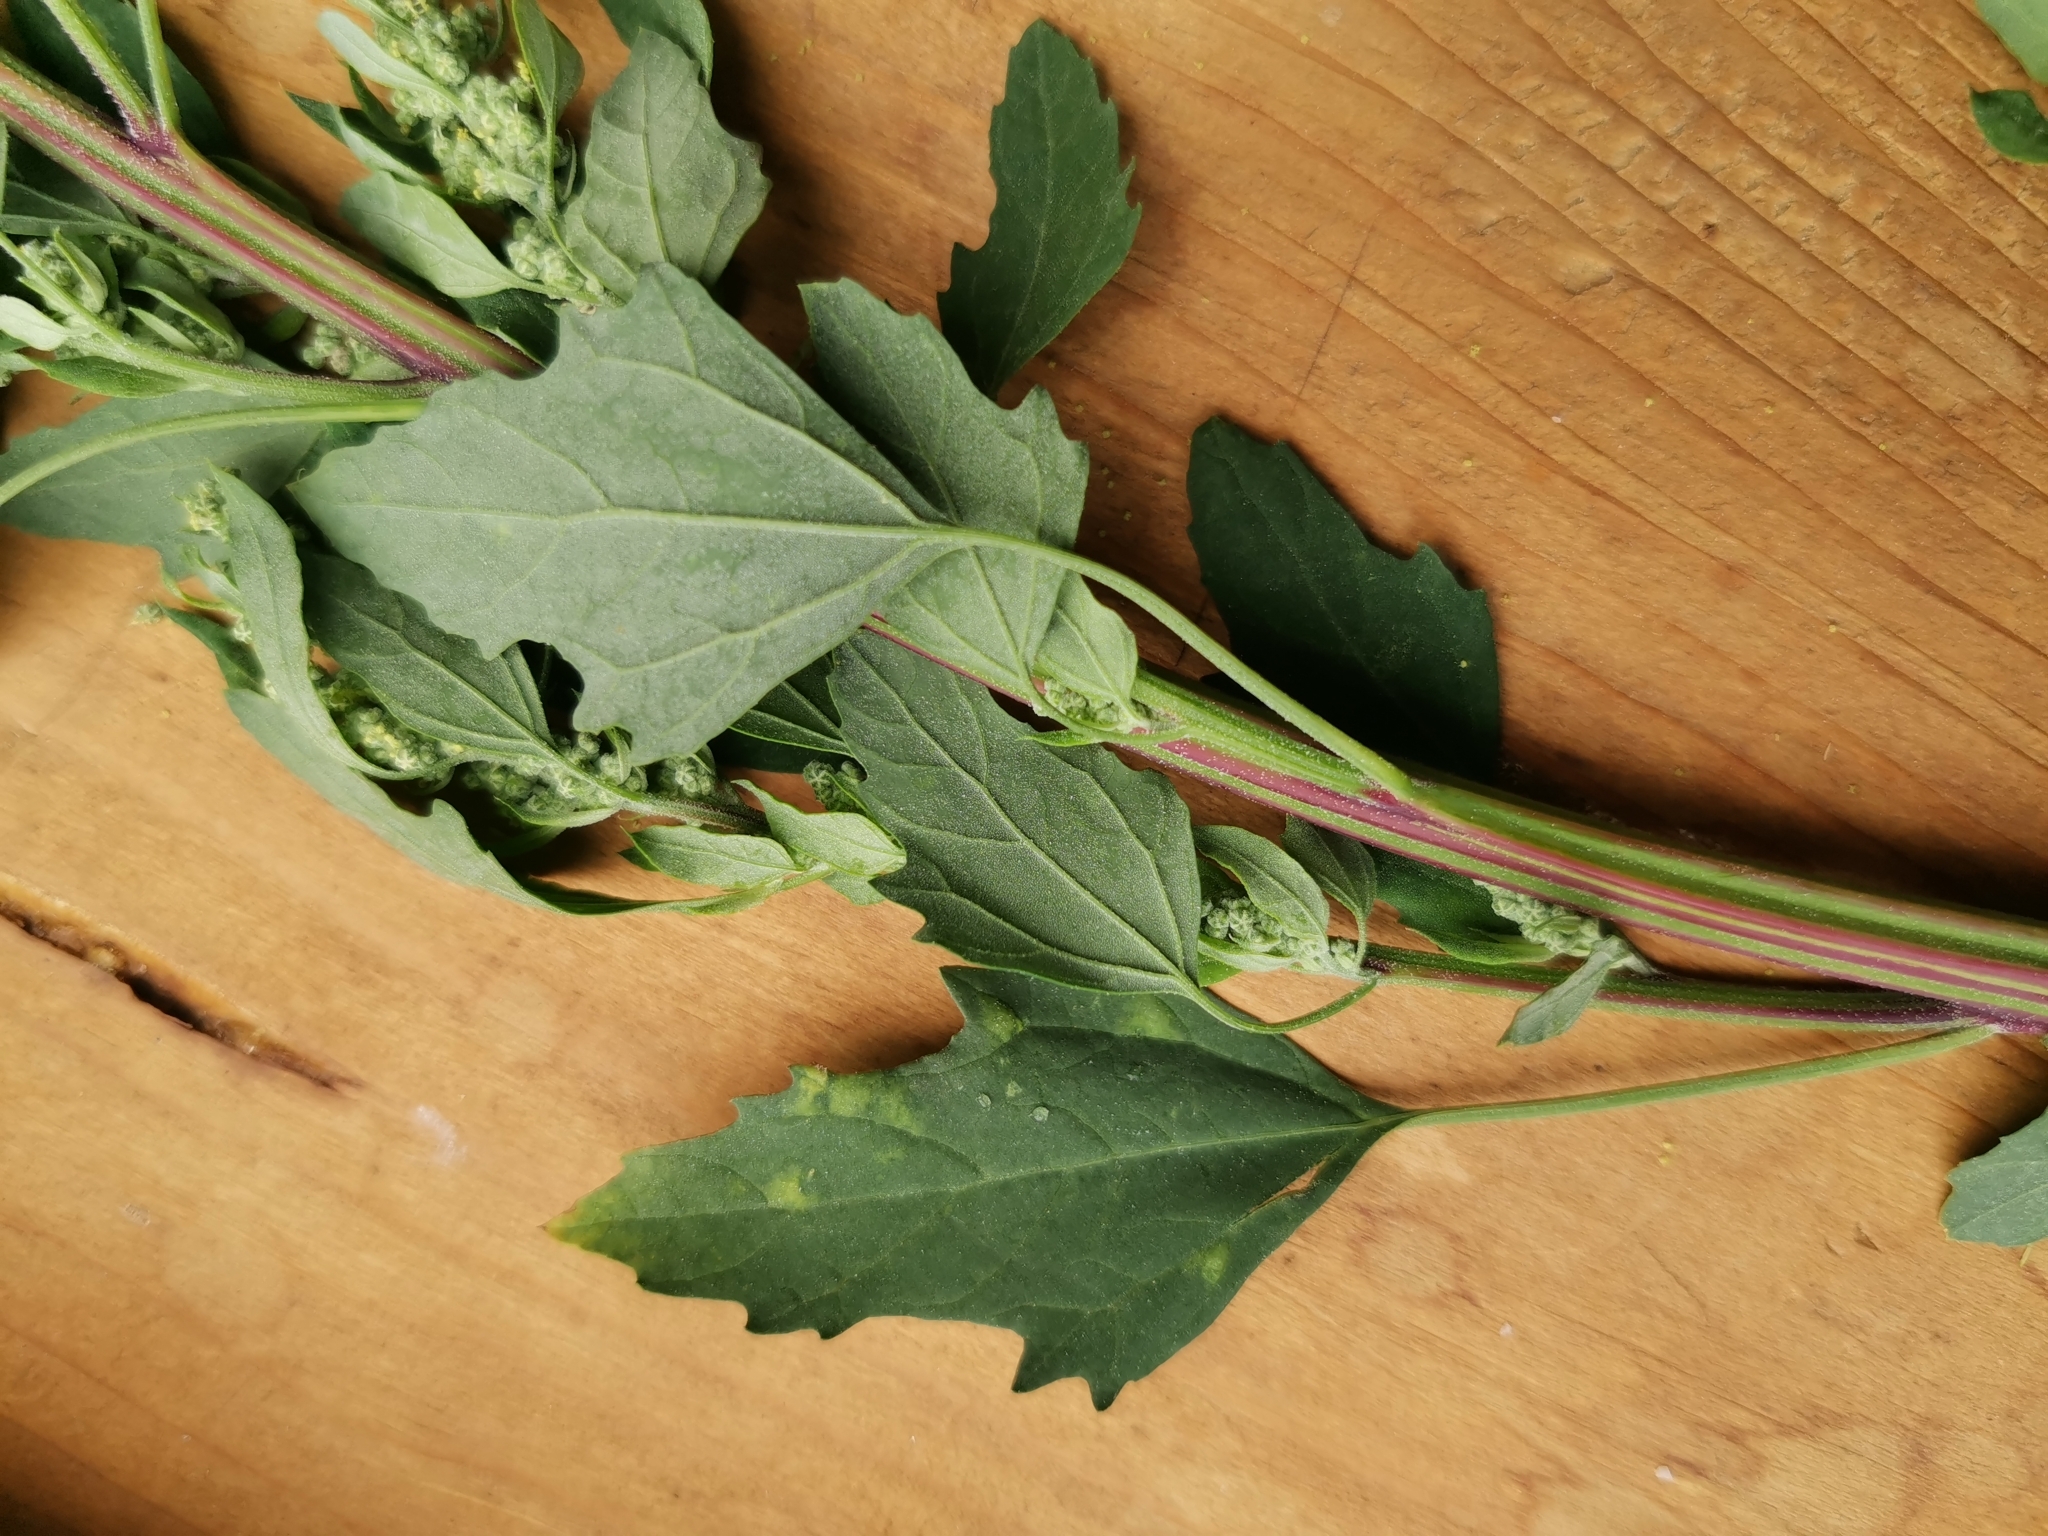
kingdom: Plantae
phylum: Tracheophyta
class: Magnoliopsida
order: Caryophyllales
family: Amaranthaceae
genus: Chenopodium
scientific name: Chenopodium album
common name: Fat-hen
